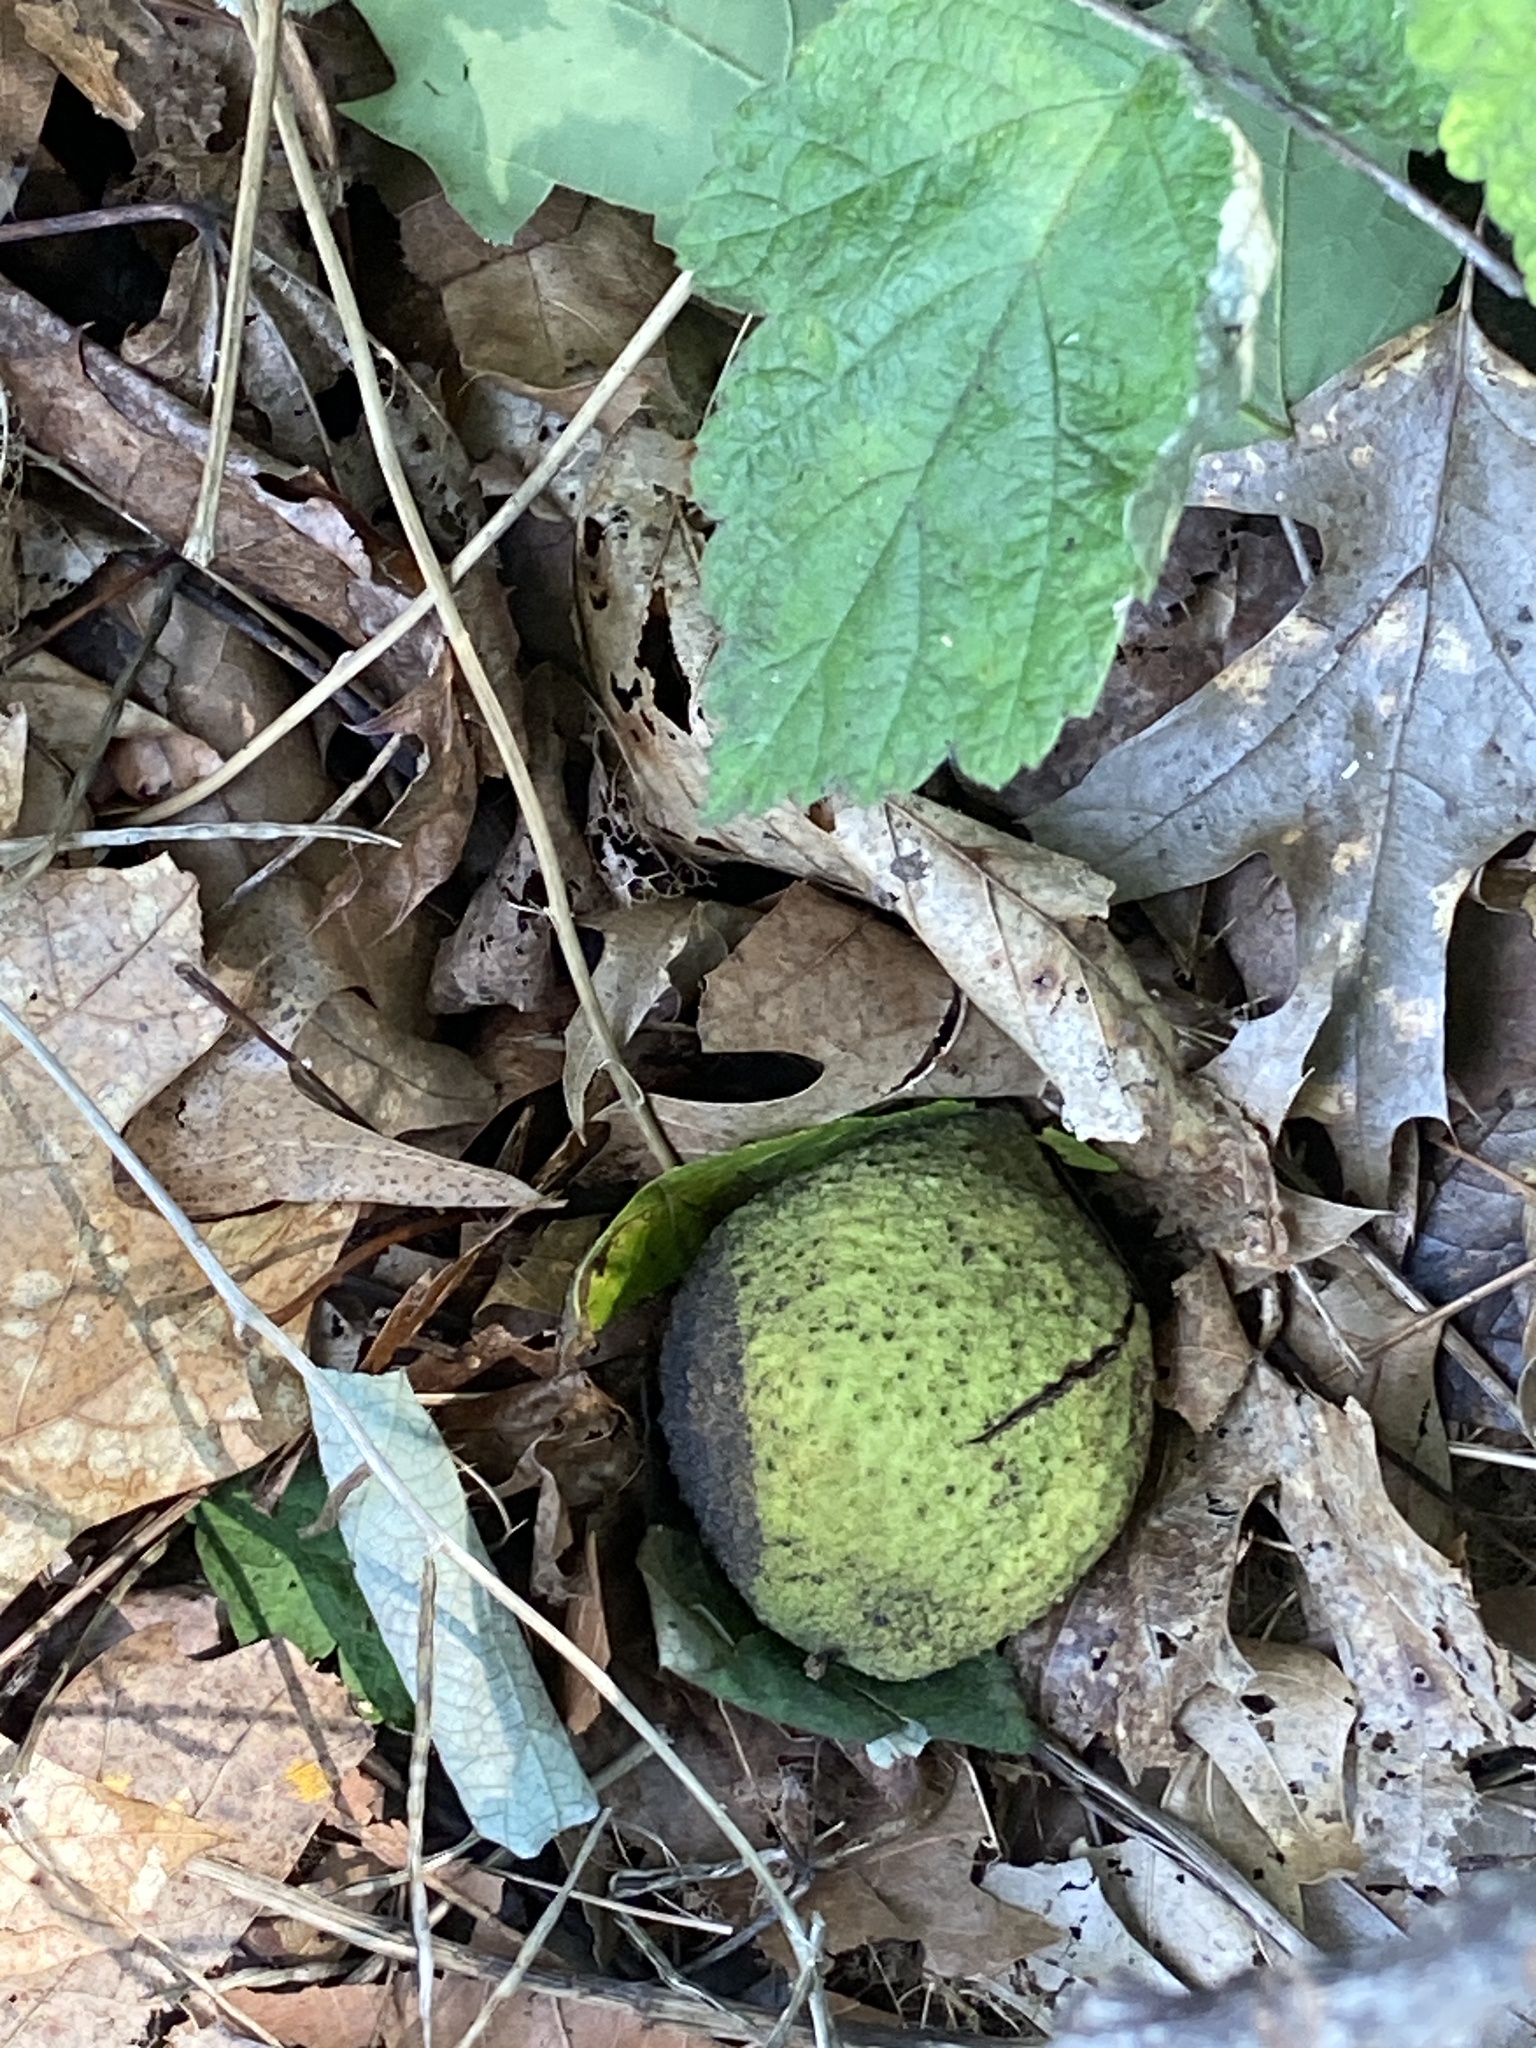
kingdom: Plantae
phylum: Tracheophyta
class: Magnoliopsida
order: Fagales
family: Juglandaceae
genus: Juglans
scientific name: Juglans nigra
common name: Black walnut
